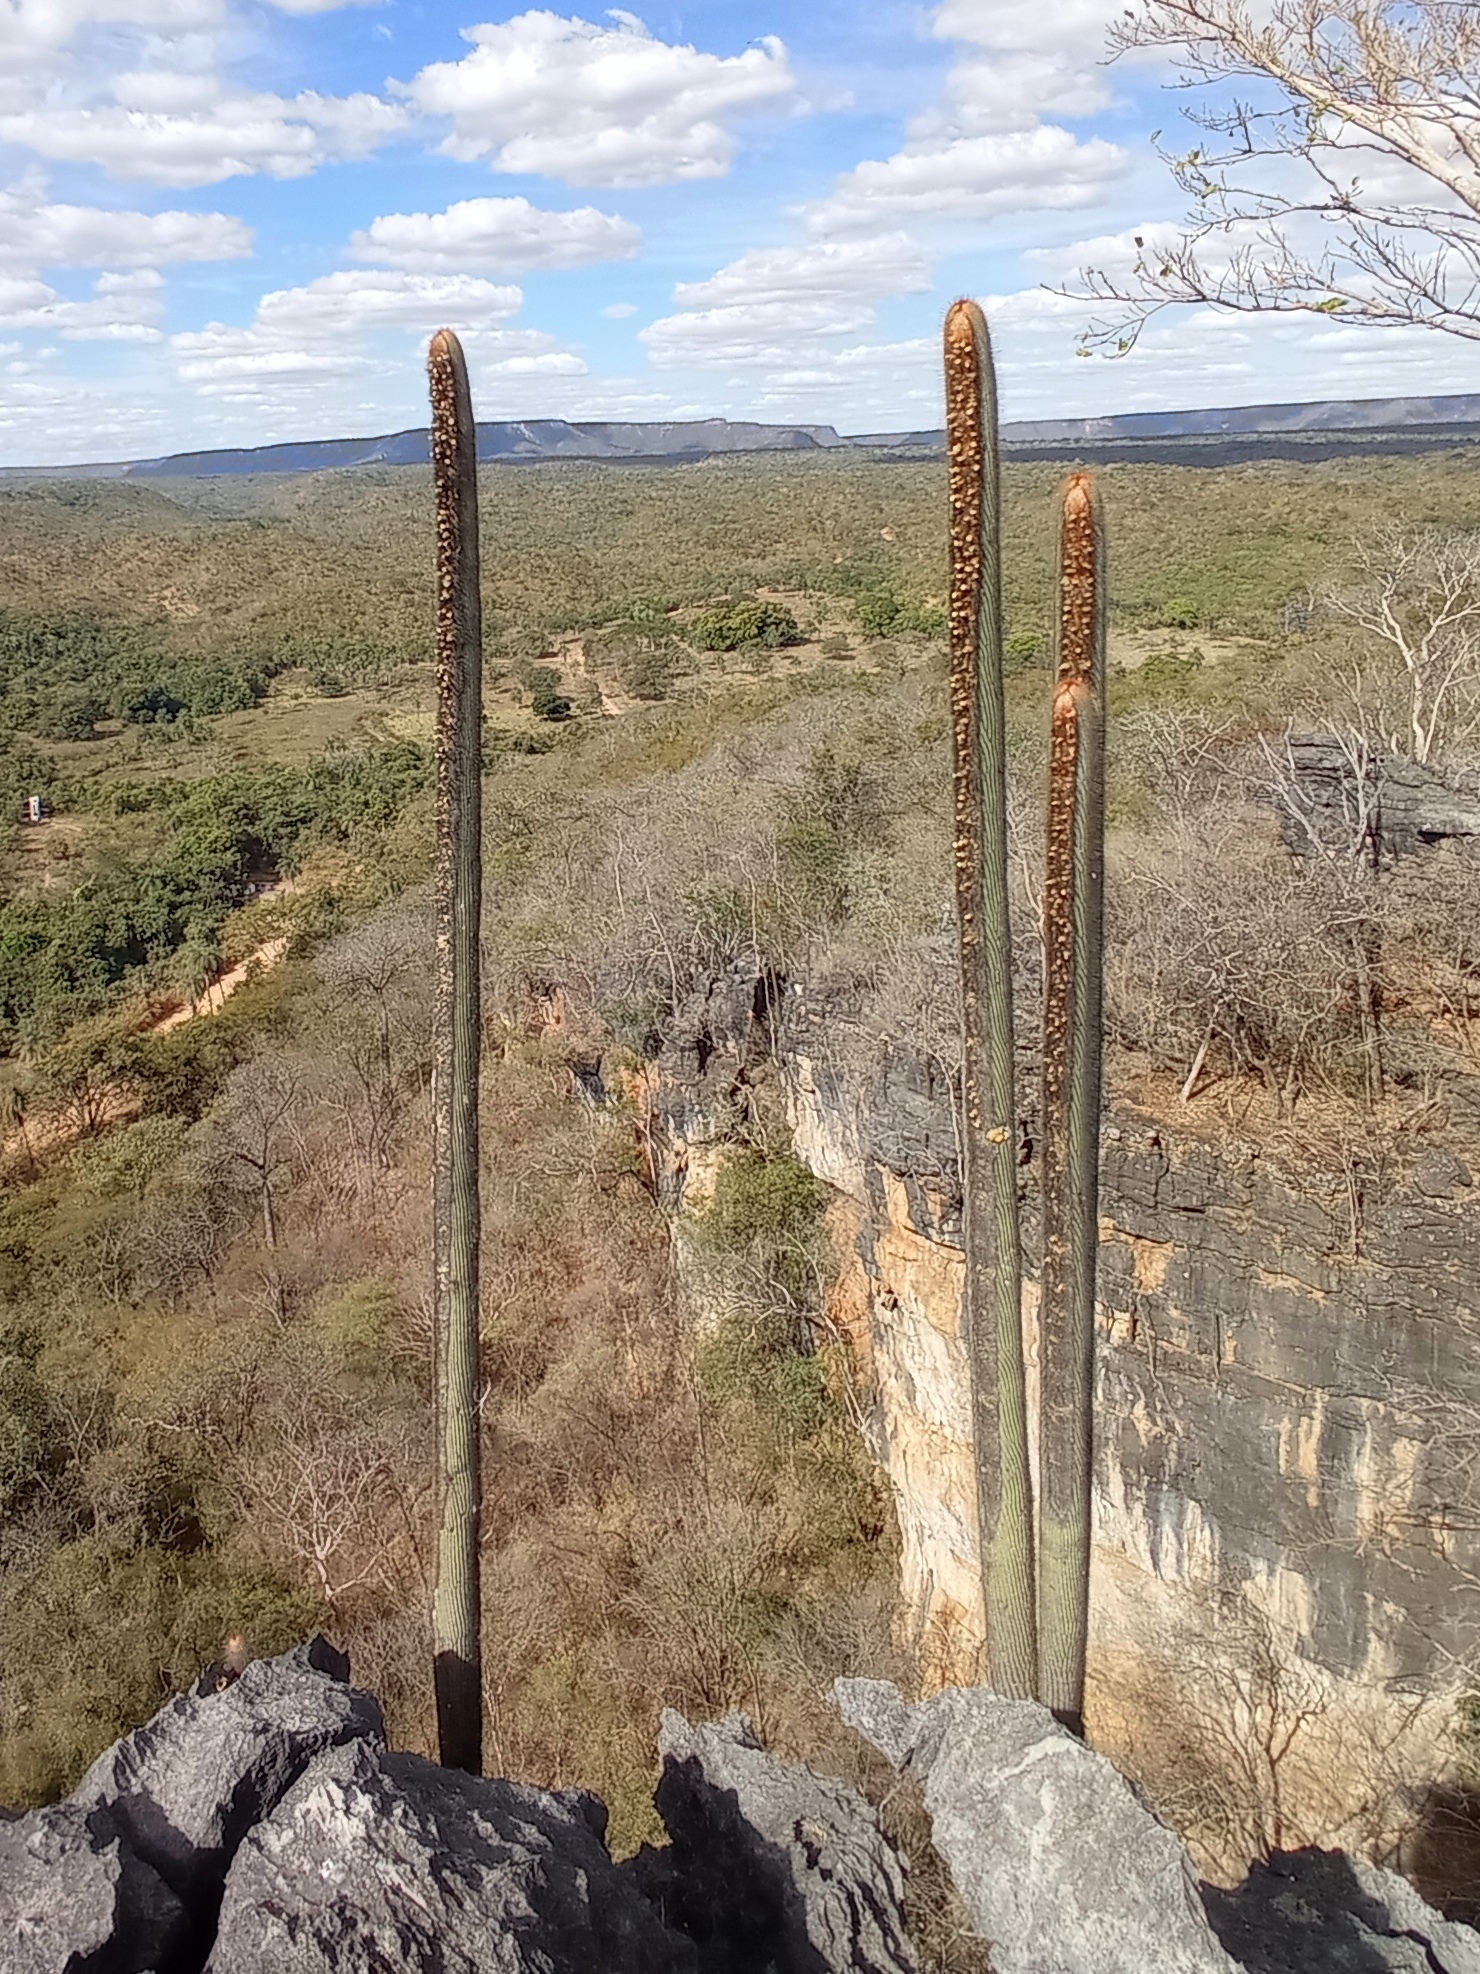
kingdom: Plantae
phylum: Tracheophyta
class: Magnoliopsida
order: Caryophyllales
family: Cactaceae
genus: Coleocephalocereus
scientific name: Coleocephalocereus
